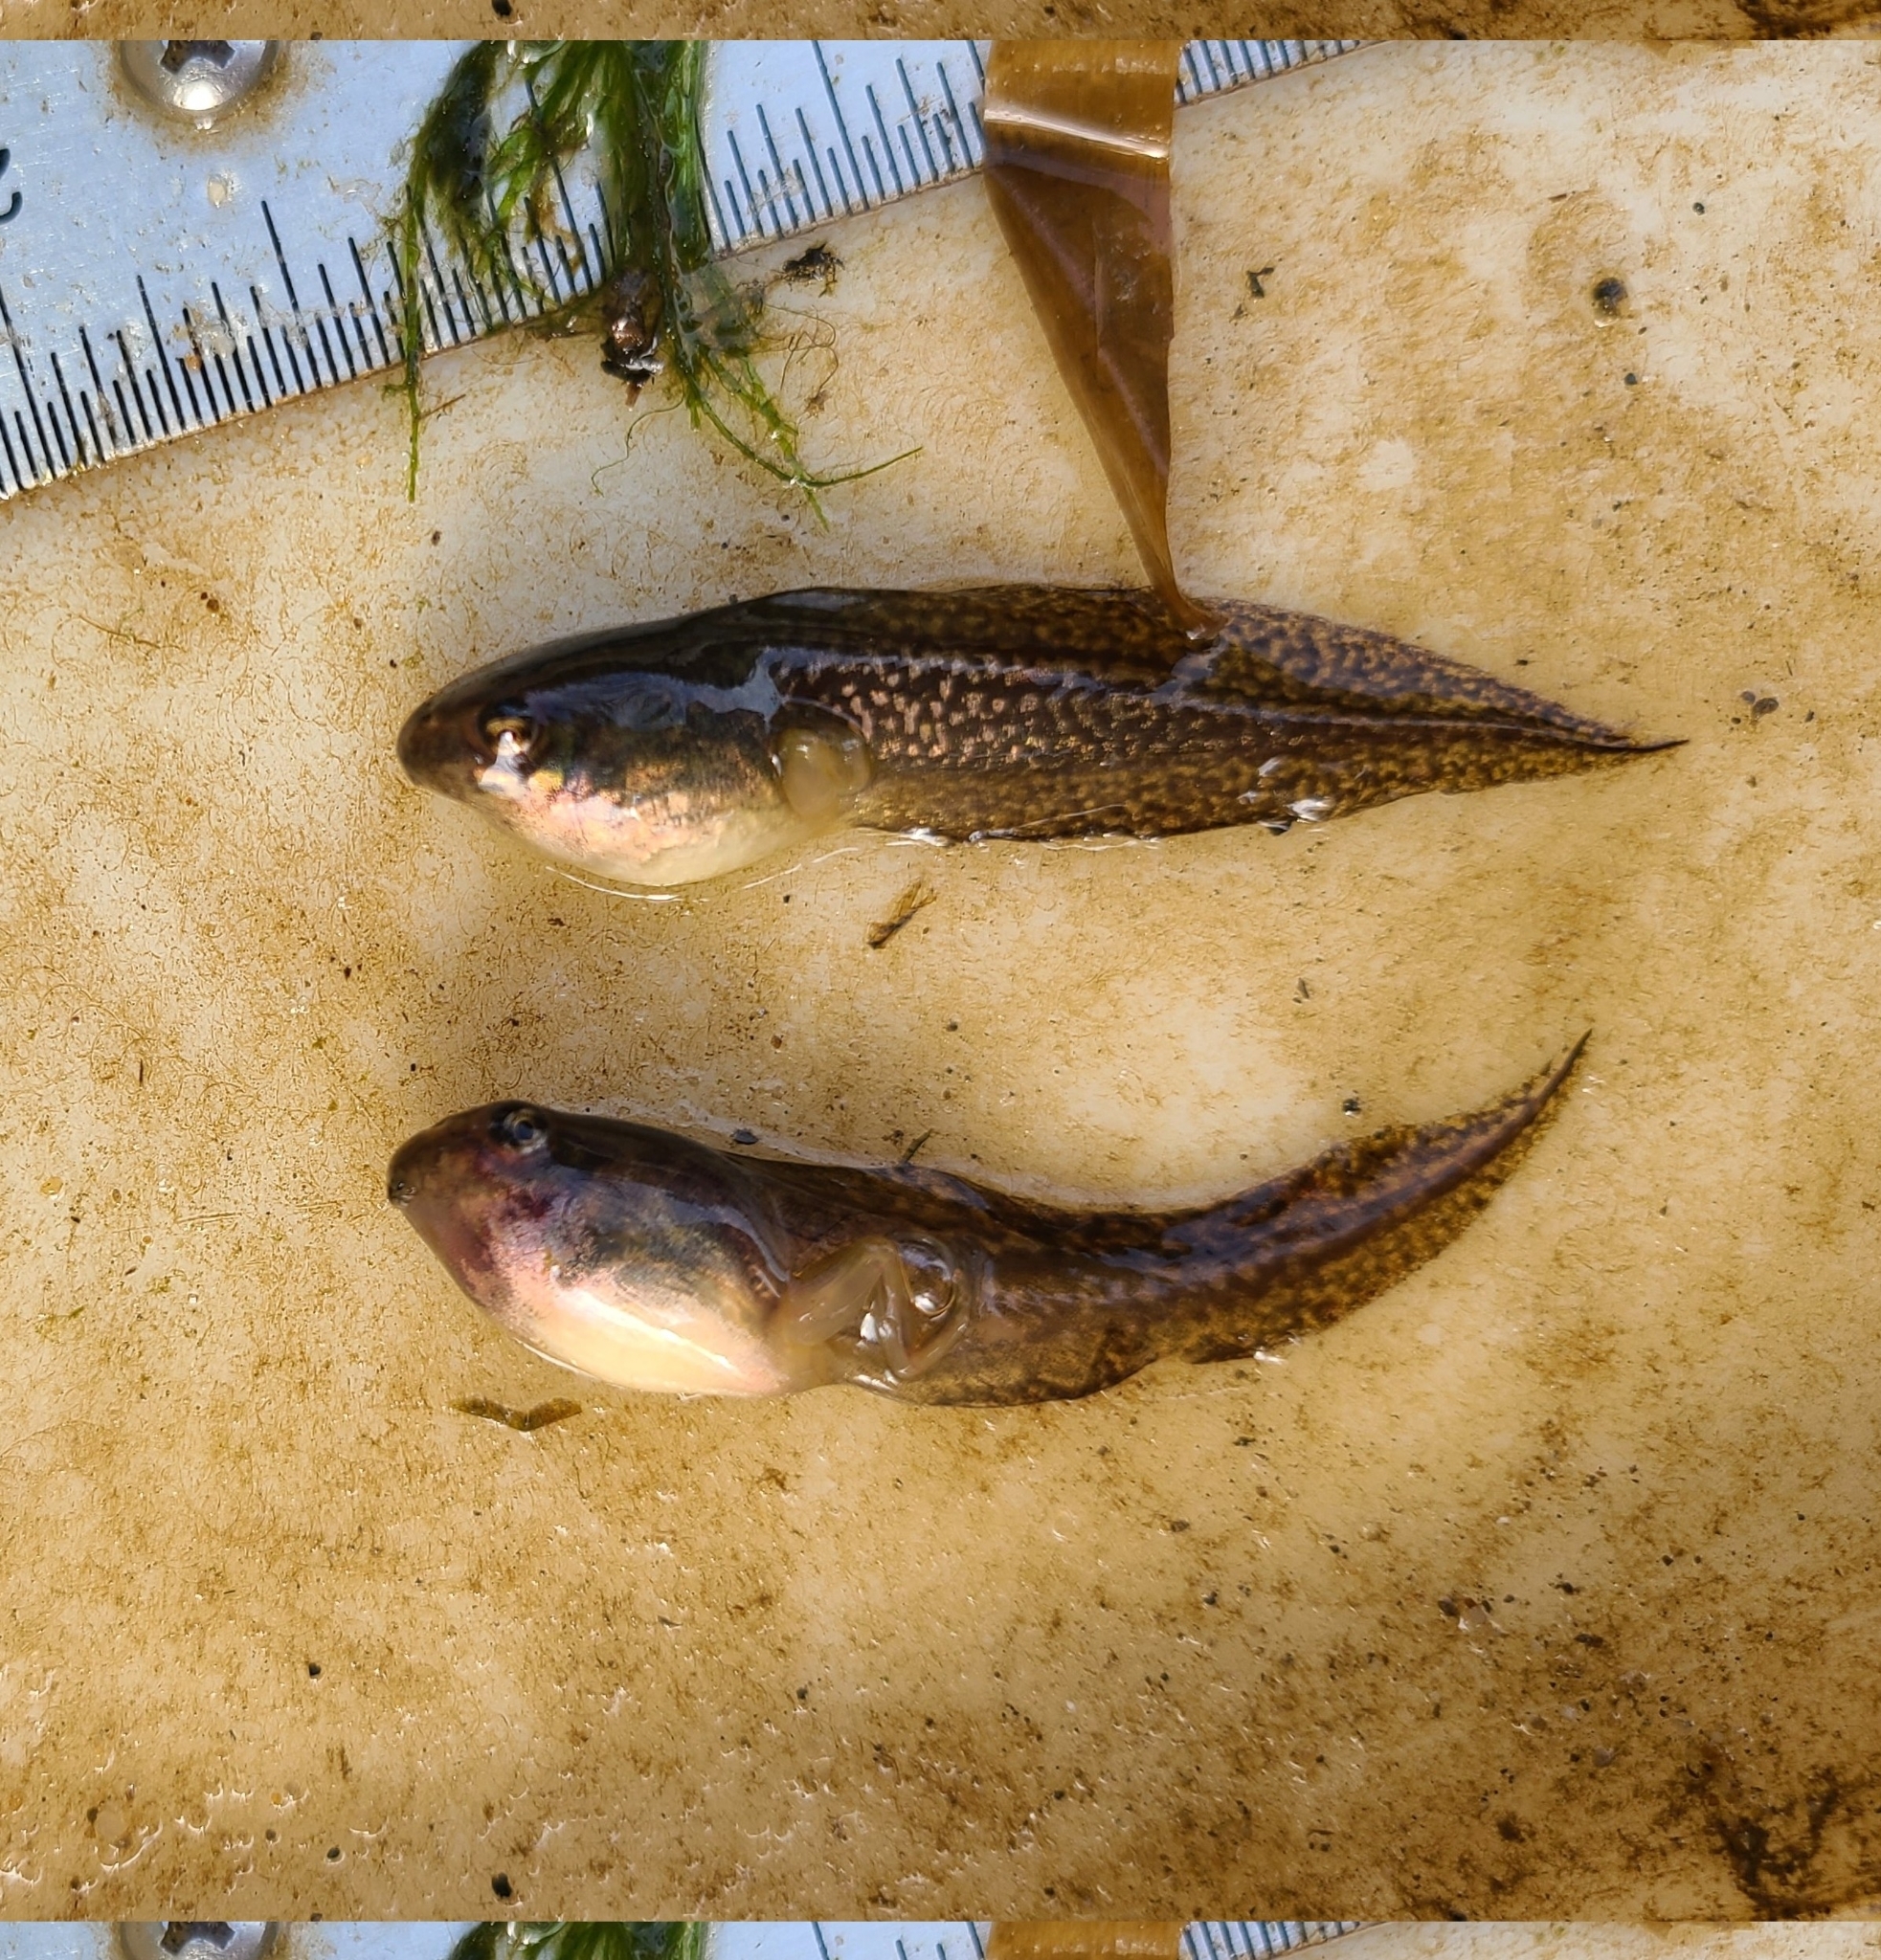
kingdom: Animalia
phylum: Chordata
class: Amphibia
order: Anura
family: Hylidae
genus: Dryophytes
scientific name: Dryophytes cinereus
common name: Green treefrog
